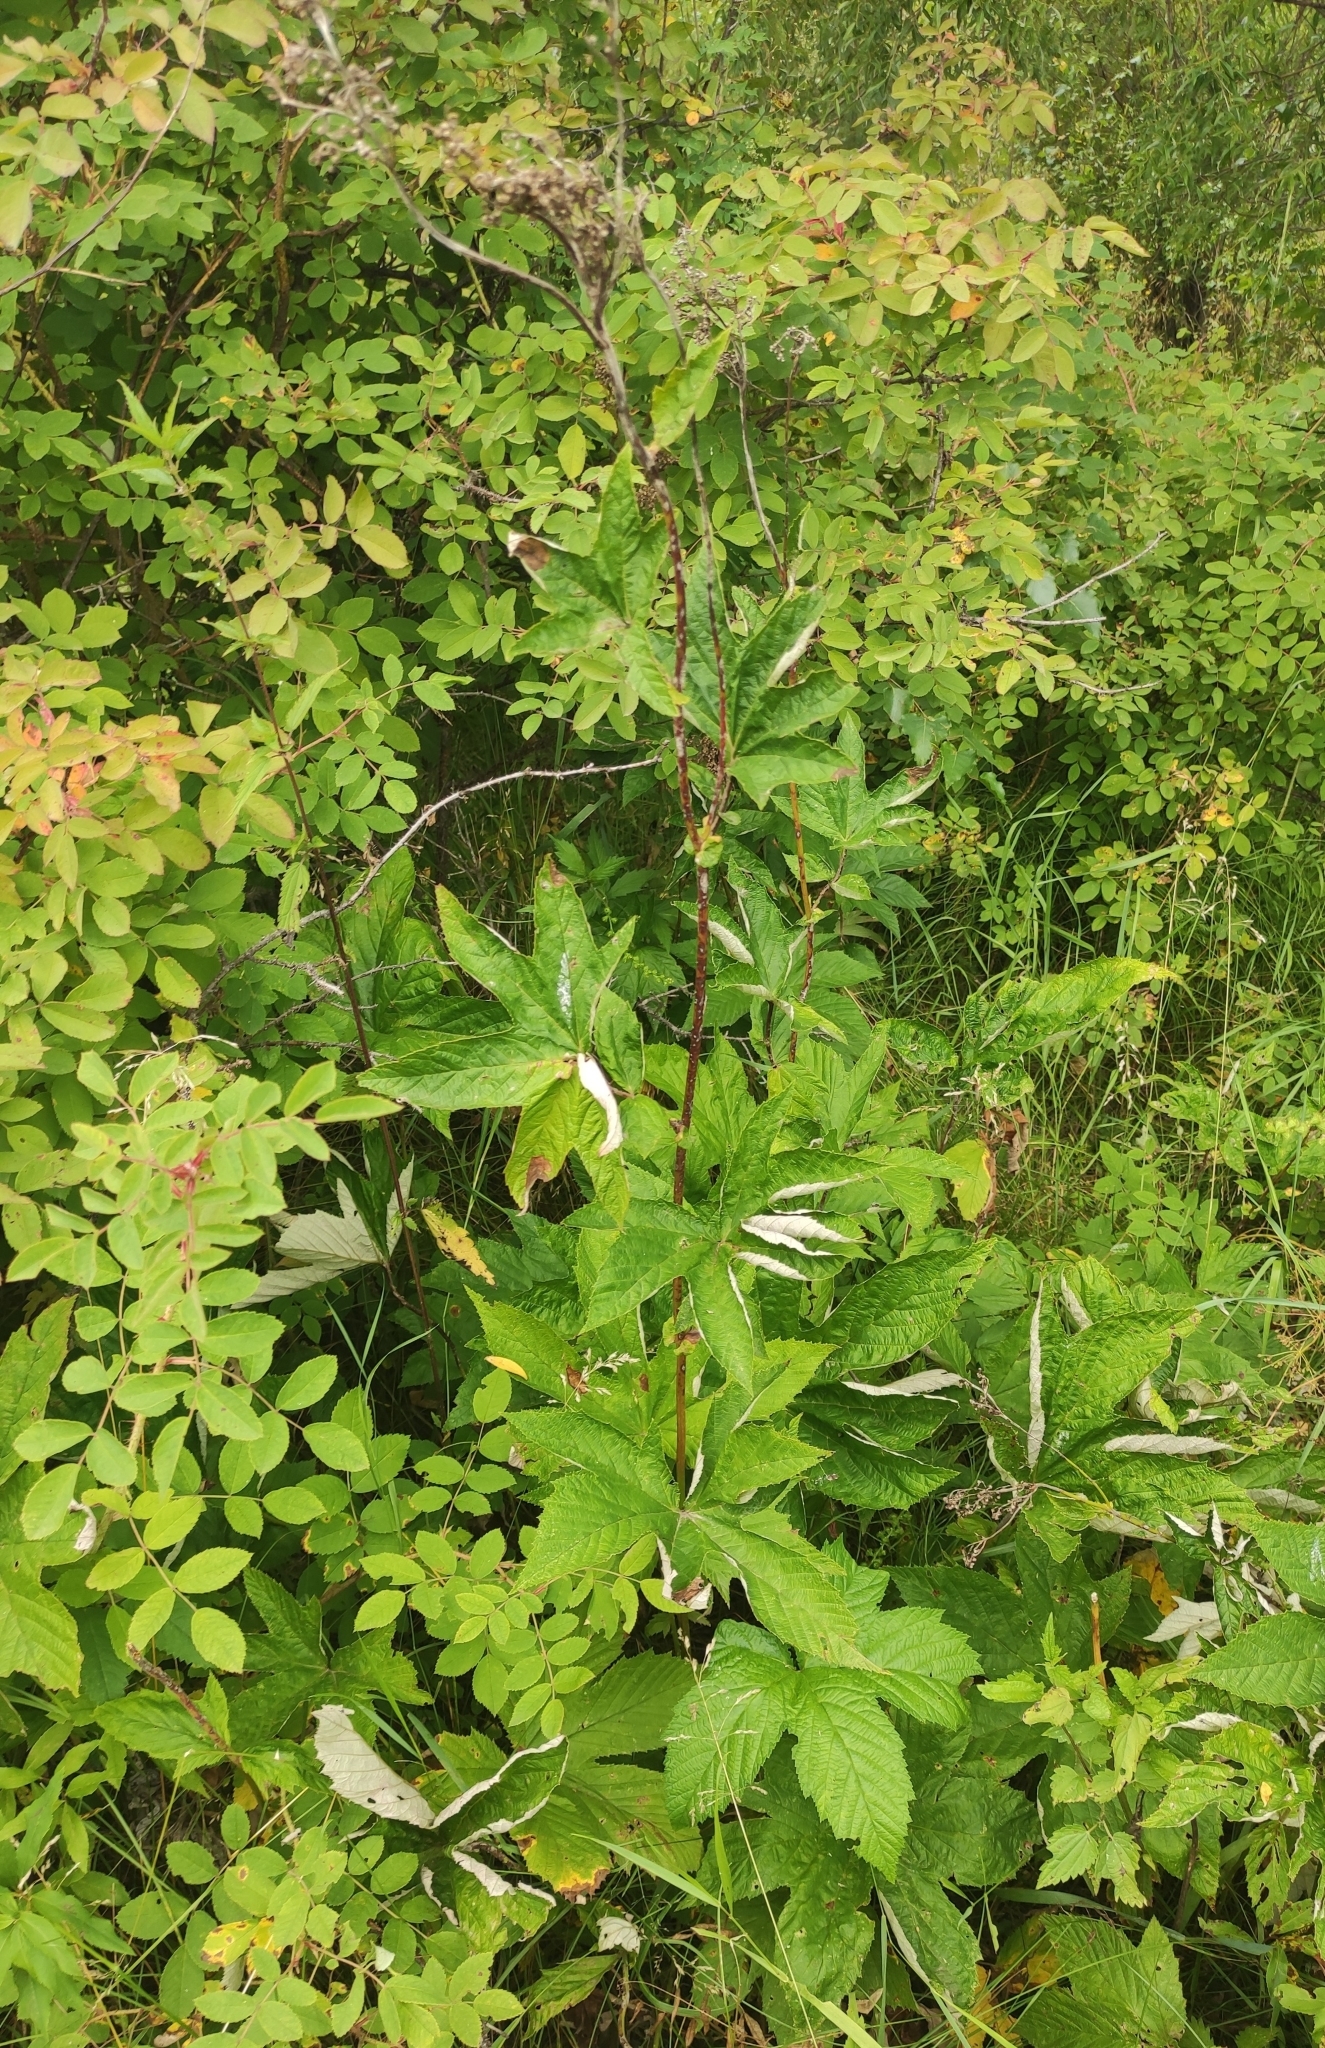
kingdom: Plantae
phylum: Tracheophyta
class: Magnoliopsida
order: Rosales
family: Rosaceae
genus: Filipendula
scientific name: Filipendula digitata
